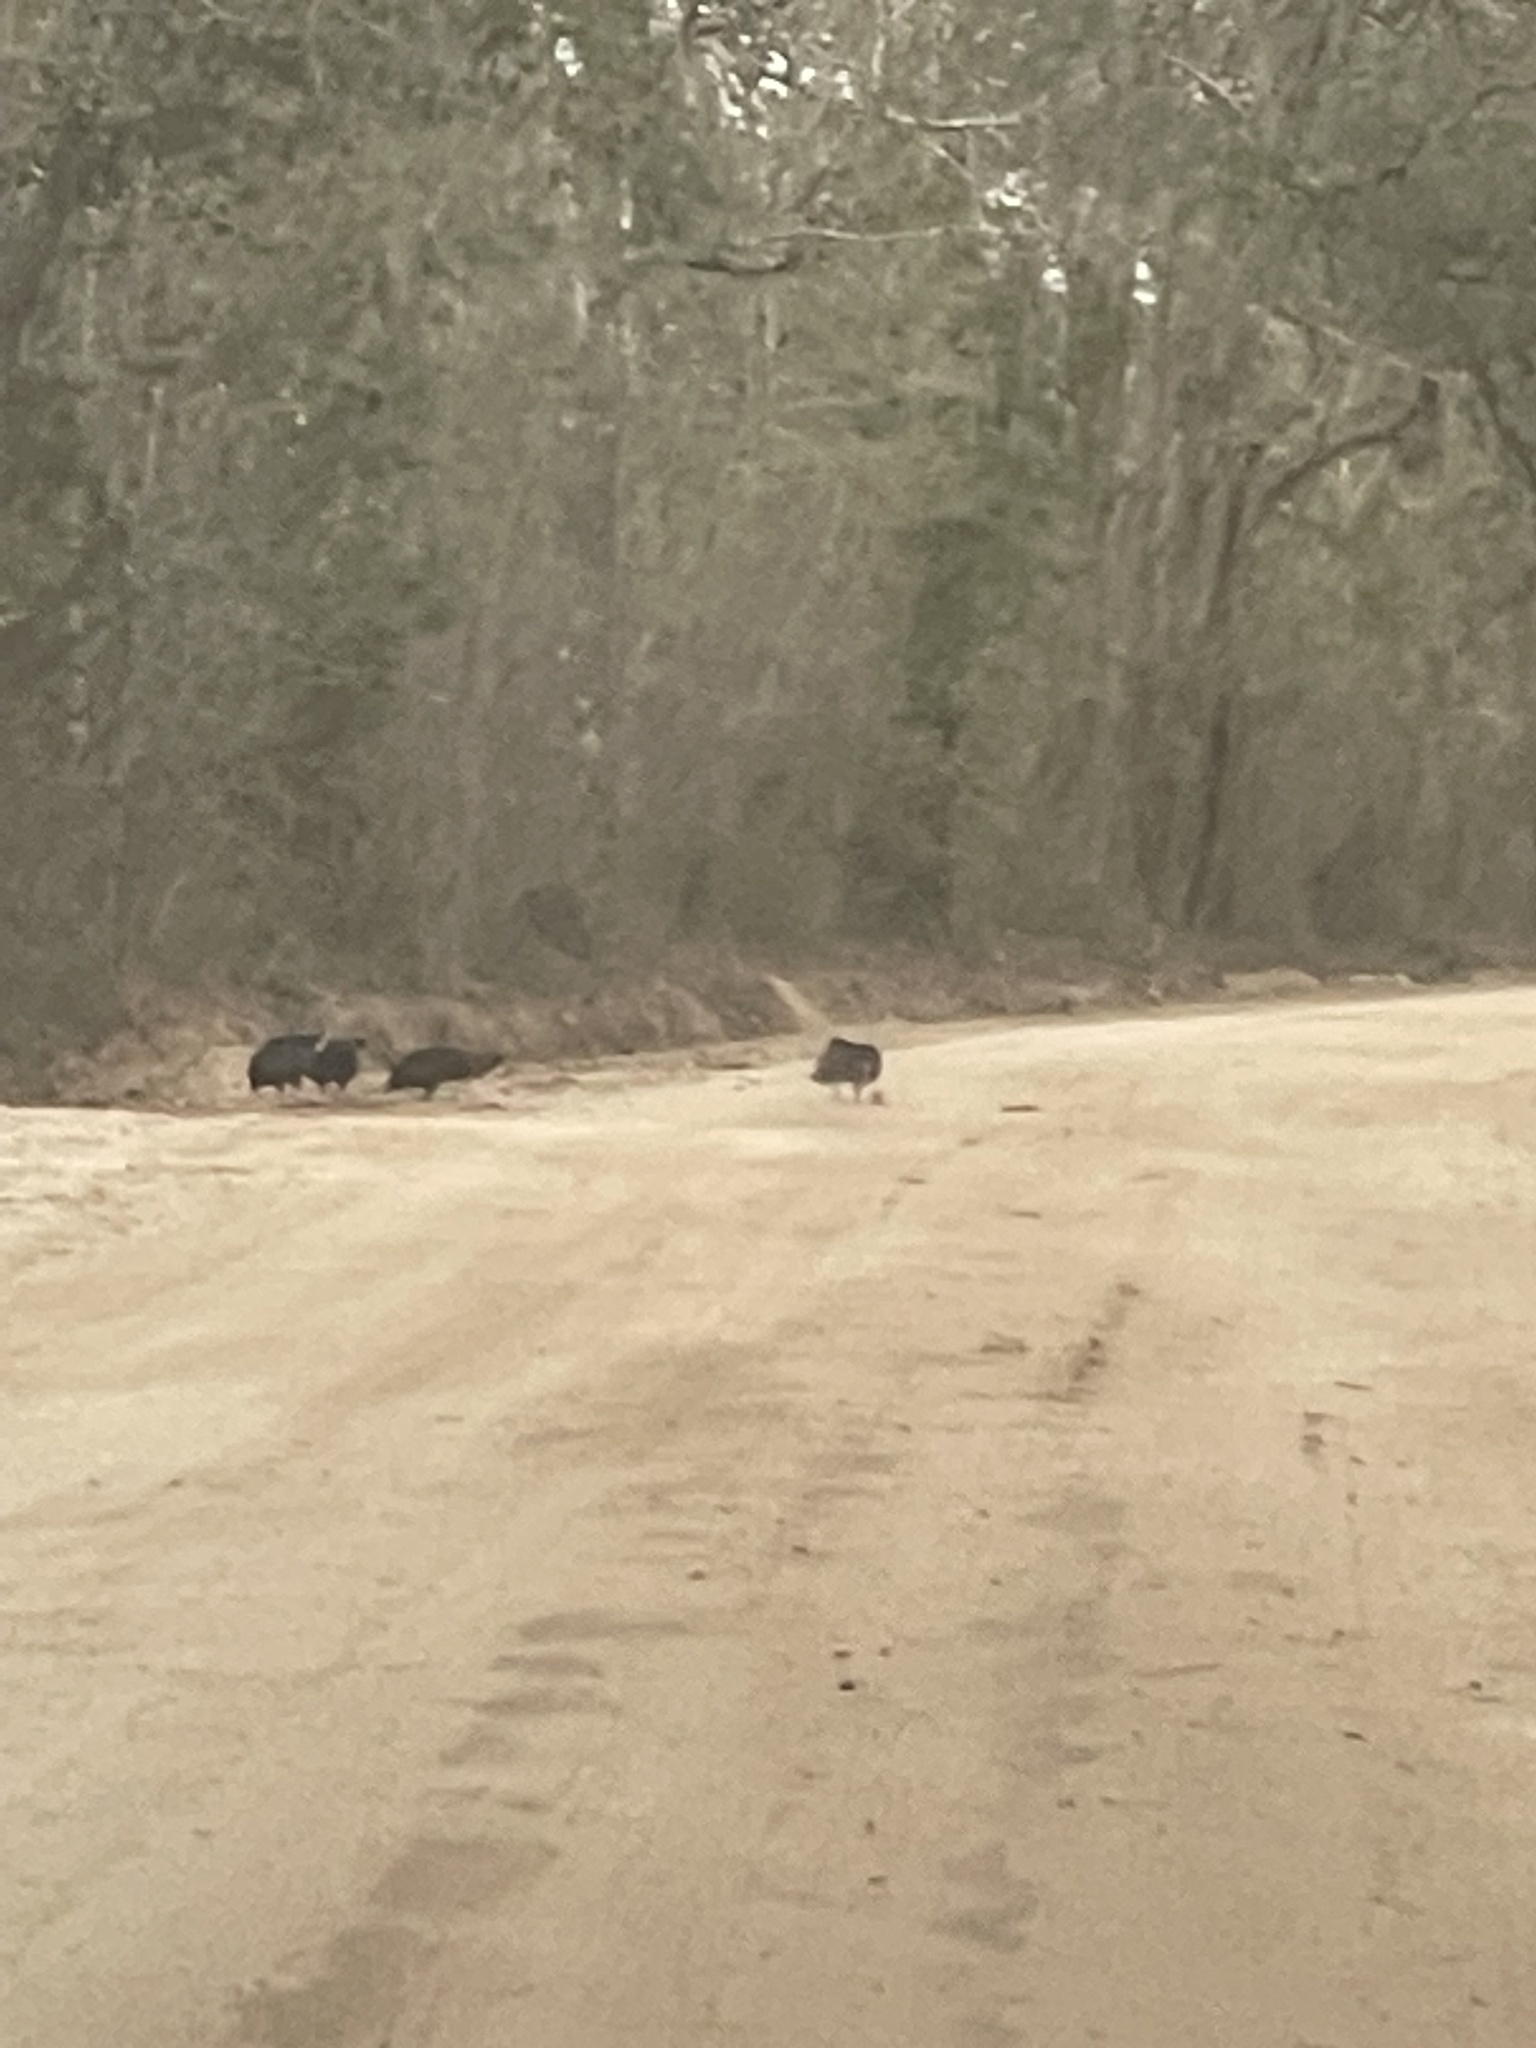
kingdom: Animalia
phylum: Chordata
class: Aves
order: Accipitriformes
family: Cathartidae
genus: Coragyps
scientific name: Coragyps atratus
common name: Black vulture
